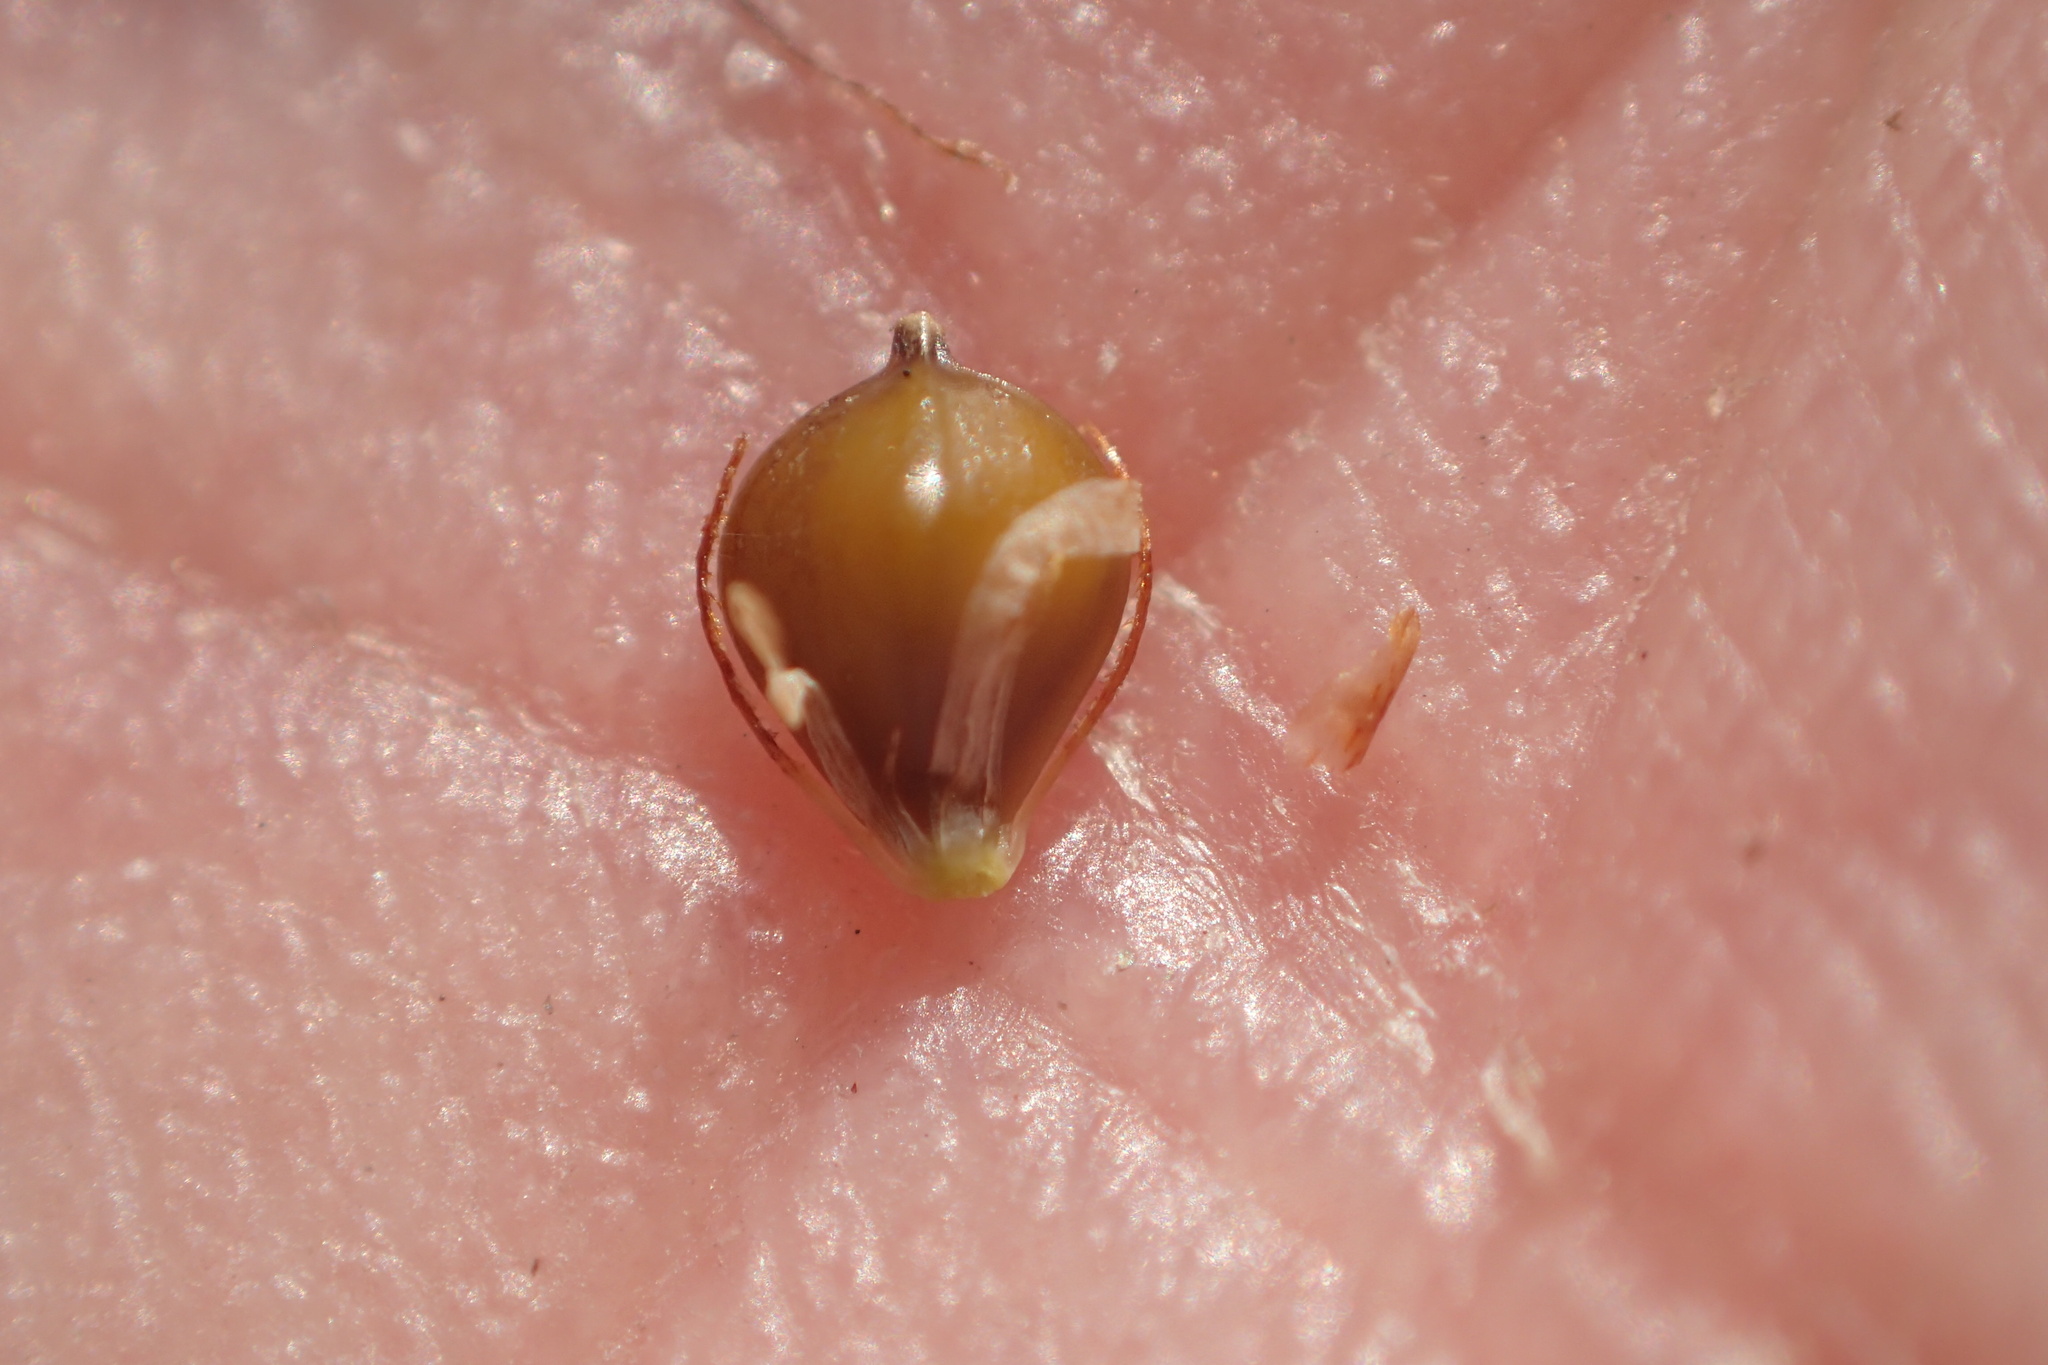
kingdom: Plantae
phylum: Tracheophyta
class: Liliopsida
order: Poales
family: Cyperaceae
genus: Schoenoplectus
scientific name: Schoenoplectus heterochaetus
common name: Pale great bulrush
